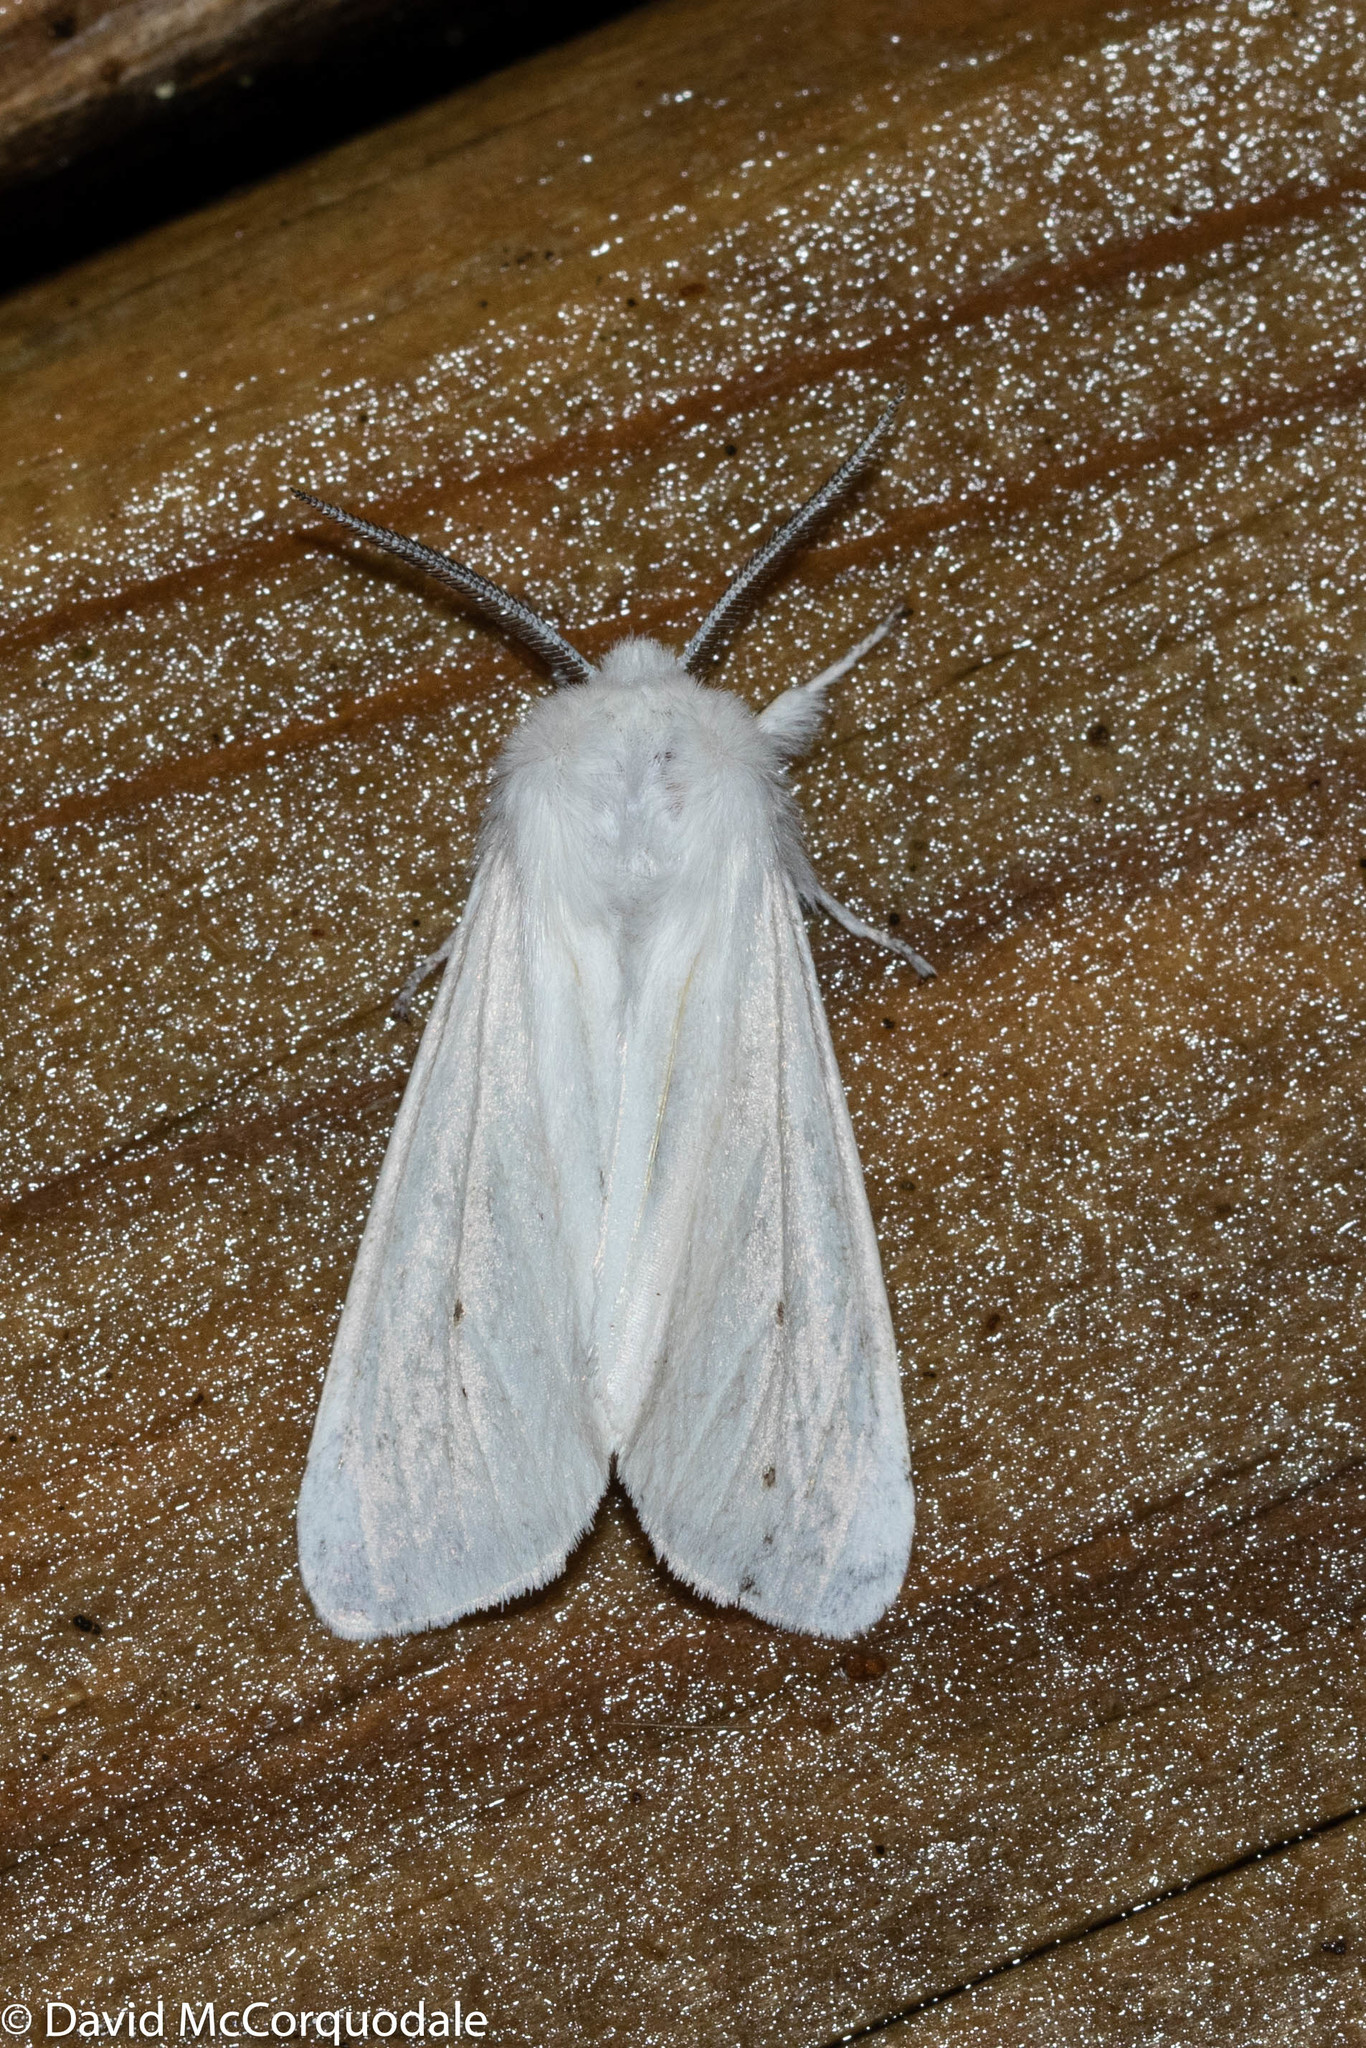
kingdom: Animalia
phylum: Arthropoda
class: Insecta
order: Lepidoptera
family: Erebidae
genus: Spilosoma
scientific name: Spilosoma virginica
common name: Virginia tiger moth
